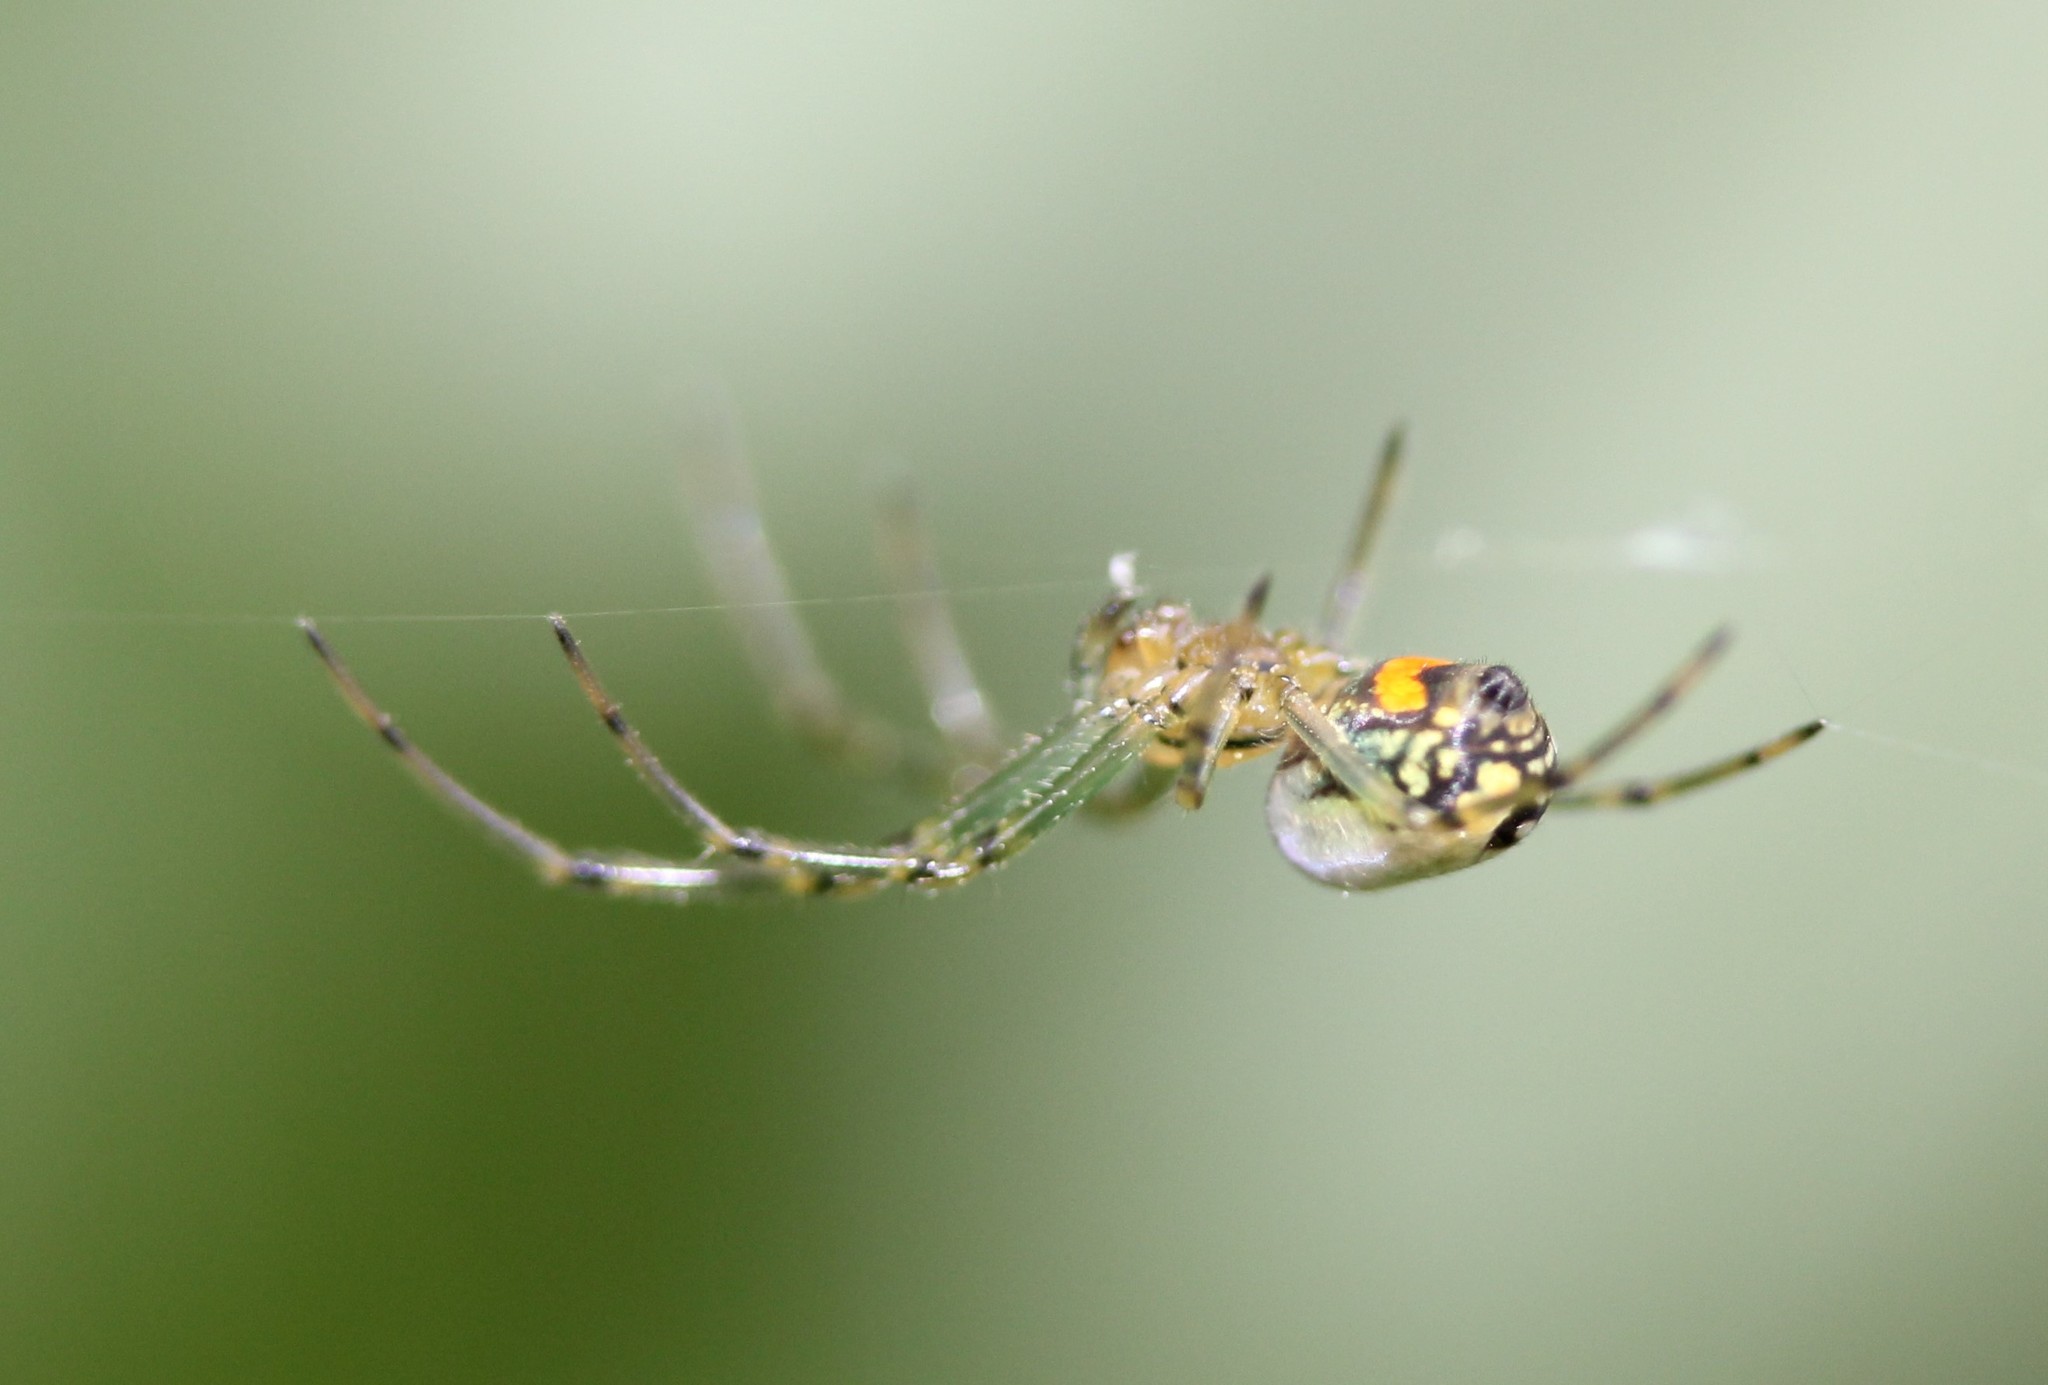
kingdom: Animalia
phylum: Arthropoda
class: Arachnida
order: Araneae
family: Tetragnathidae
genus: Leucauge
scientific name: Leucauge venusta
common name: Longjawed orb weavers
